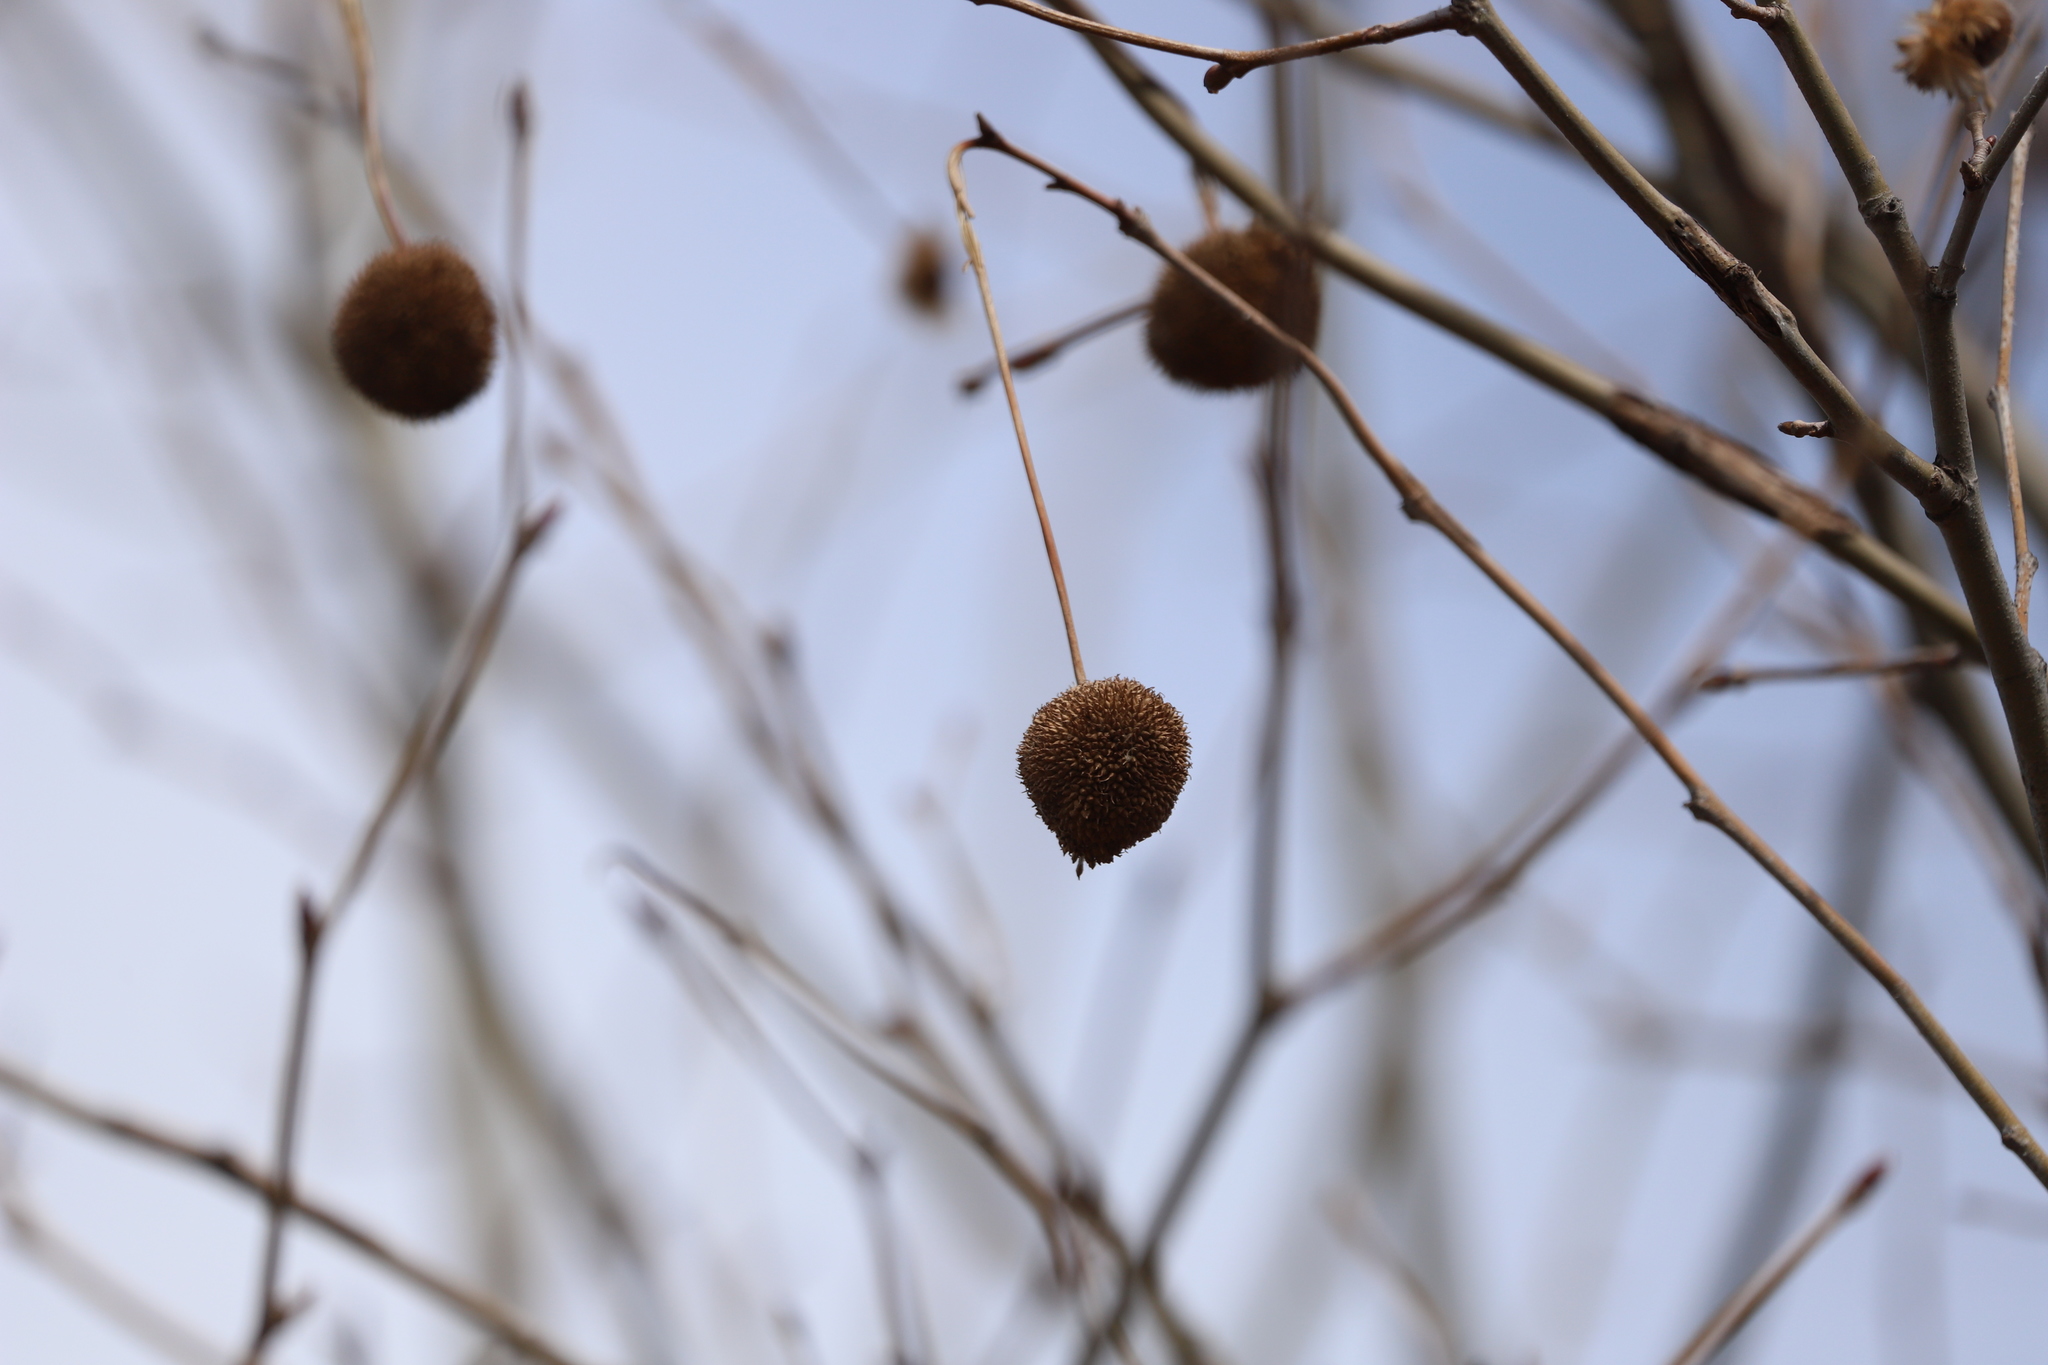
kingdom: Plantae
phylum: Tracheophyta
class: Magnoliopsida
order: Proteales
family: Platanaceae
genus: Platanus
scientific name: Platanus occidentalis
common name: American sycamore
